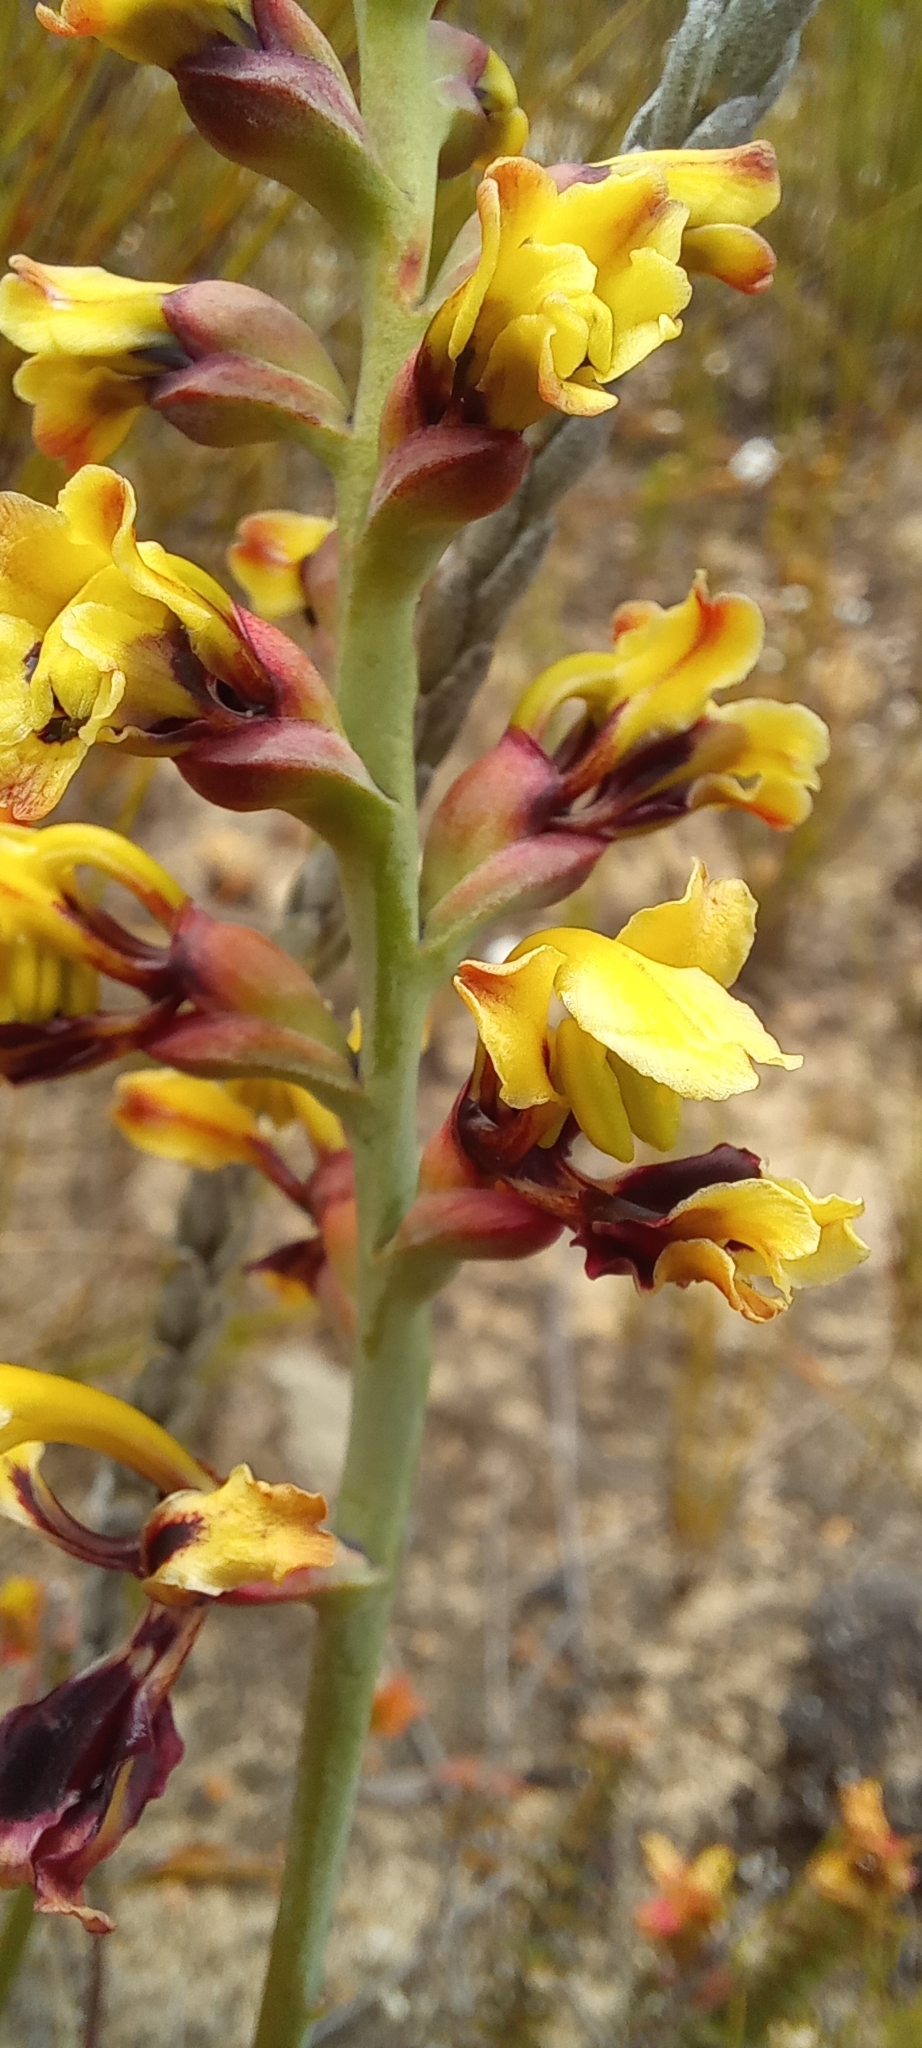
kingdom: Plantae
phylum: Tracheophyta
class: Liliopsida
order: Asparagales
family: Iridaceae
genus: Tritoniopsis
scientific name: Tritoniopsis parviflora
